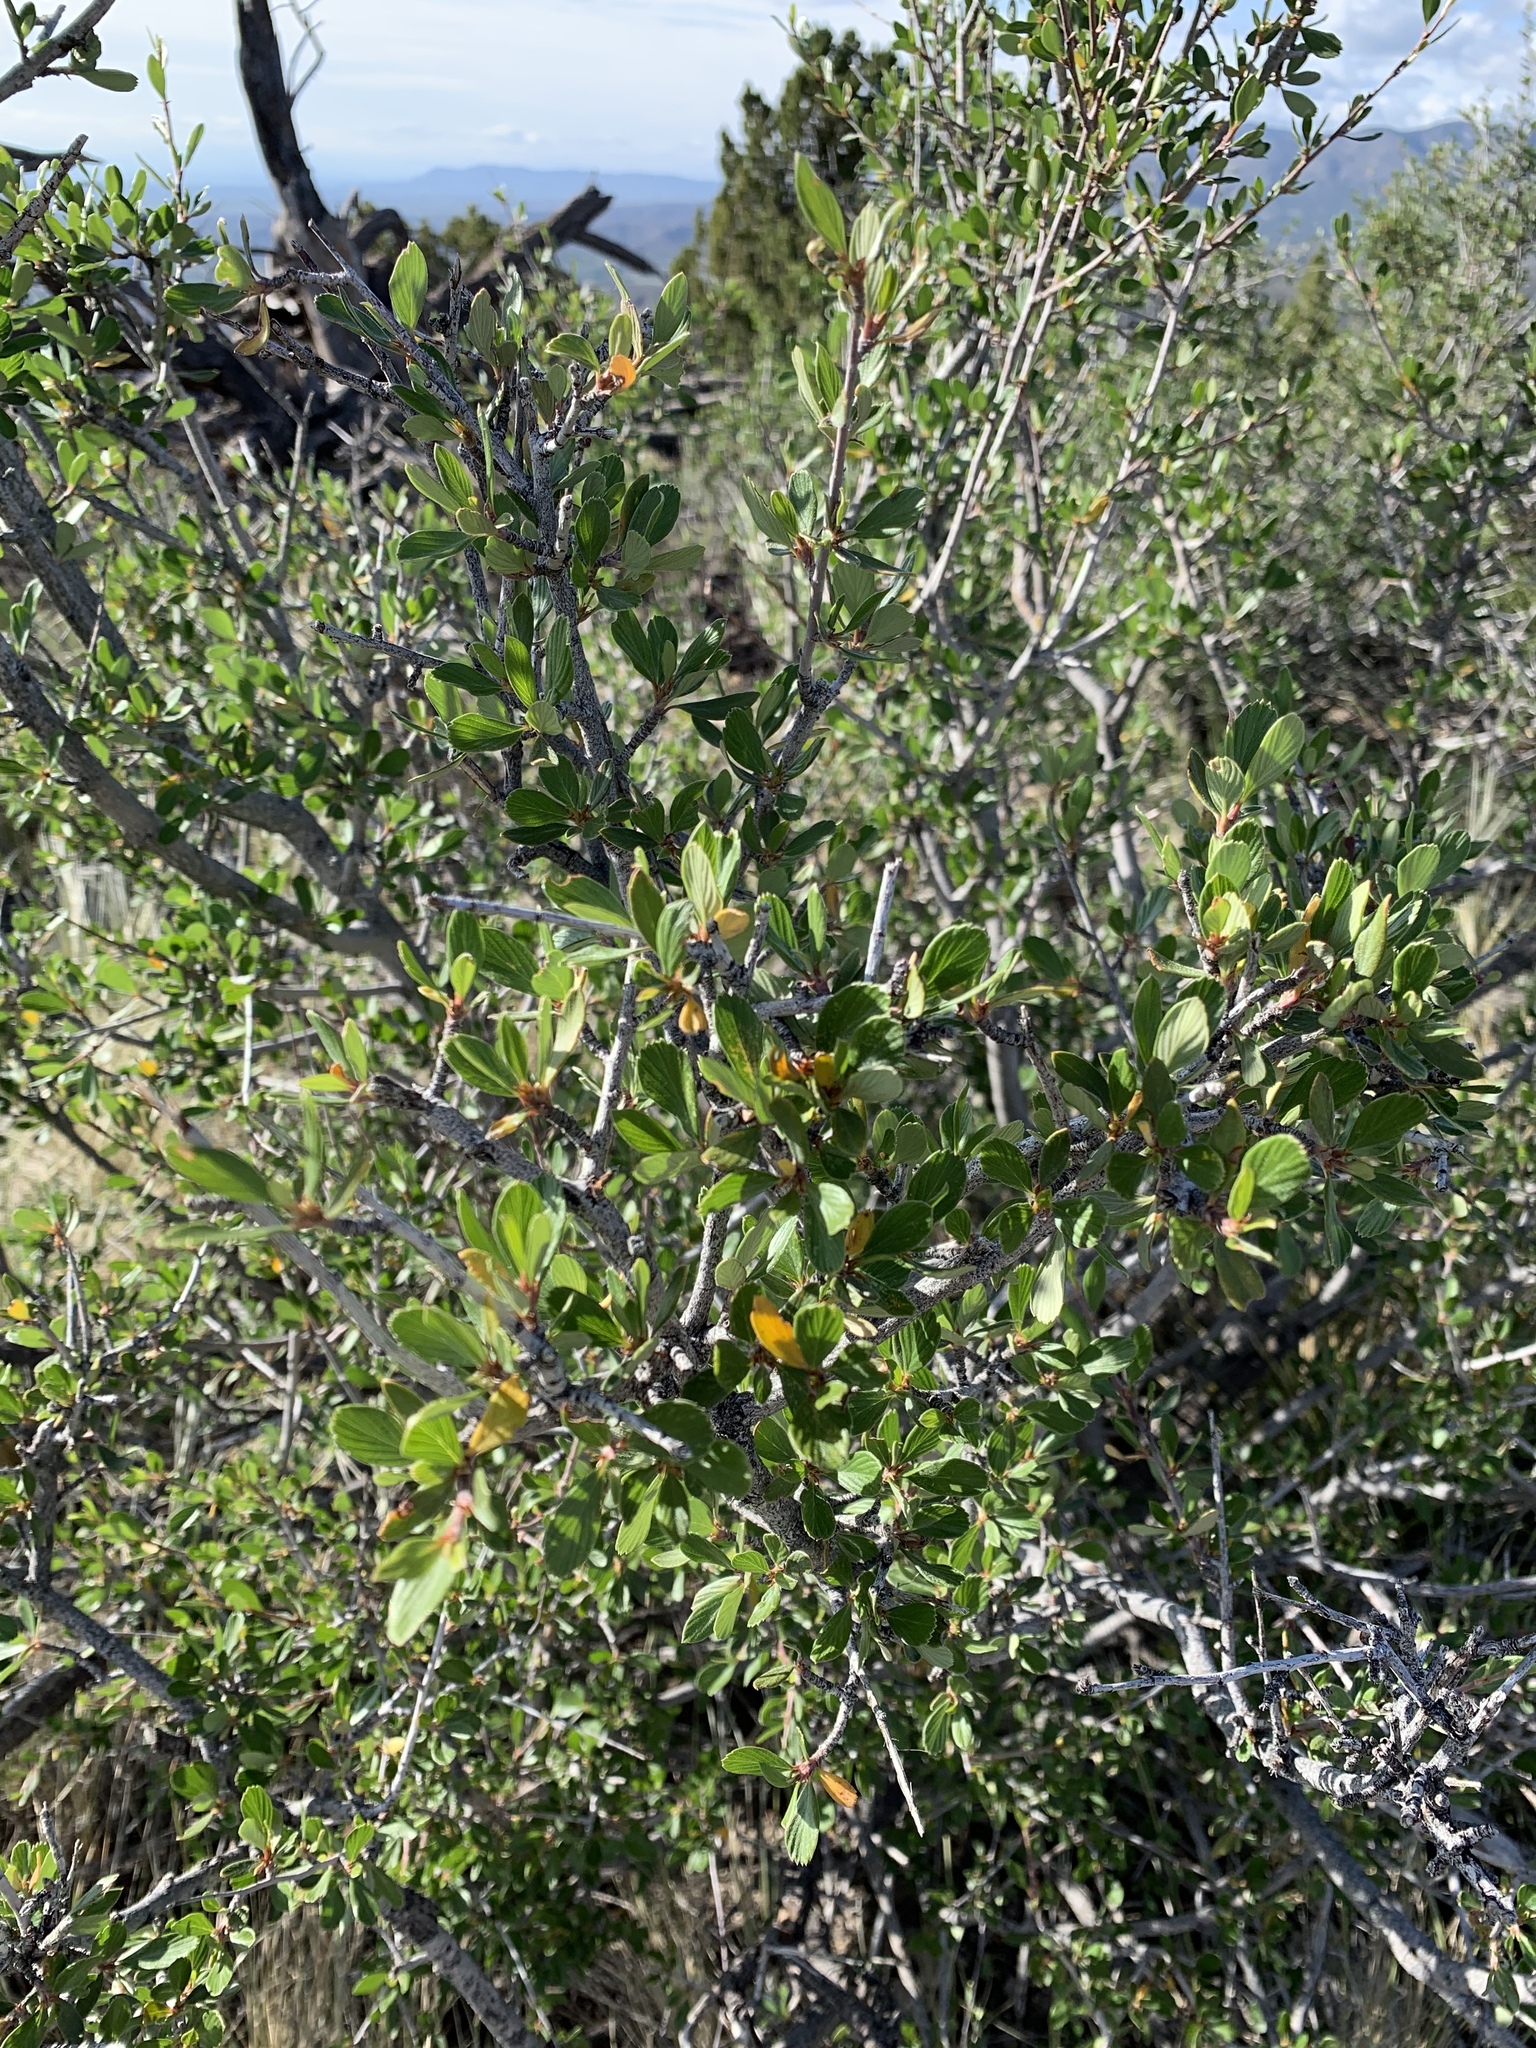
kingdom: Plantae
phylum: Tracheophyta
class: Magnoliopsida
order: Rosales
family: Rosaceae
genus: Cercocarpus
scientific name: Cercocarpus breviflorus
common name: Wright's mountain-mahogany
